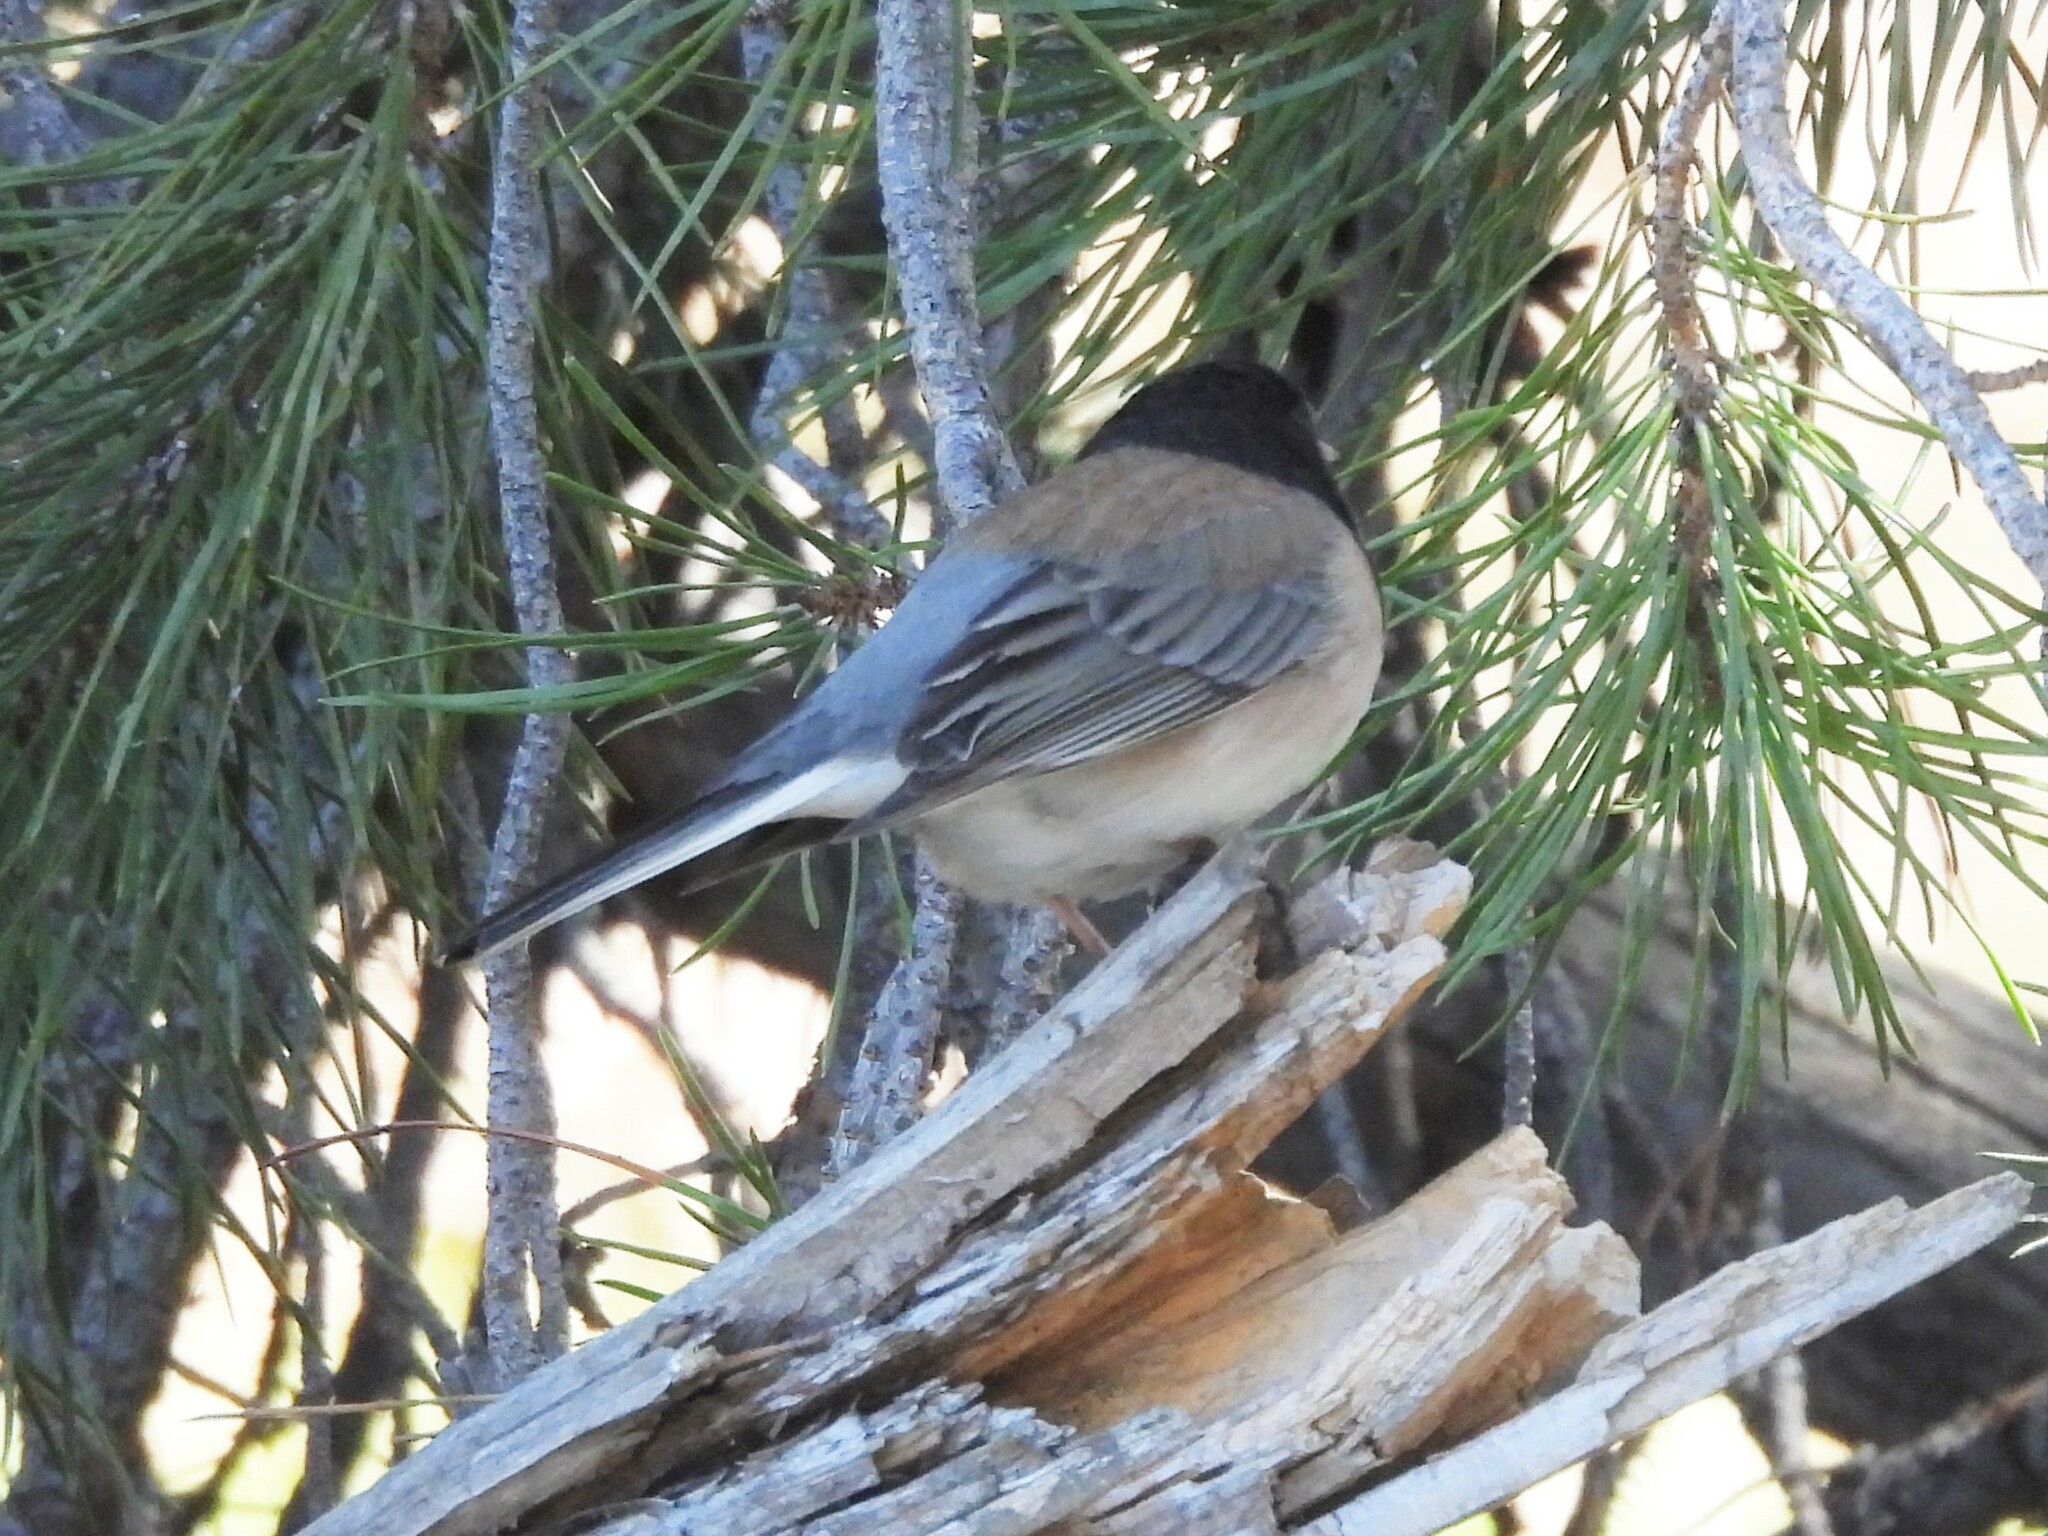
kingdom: Animalia
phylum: Chordata
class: Aves
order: Passeriformes
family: Passerellidae
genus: Junco
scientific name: Junco hyemalis
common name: Dark-eyed junco
